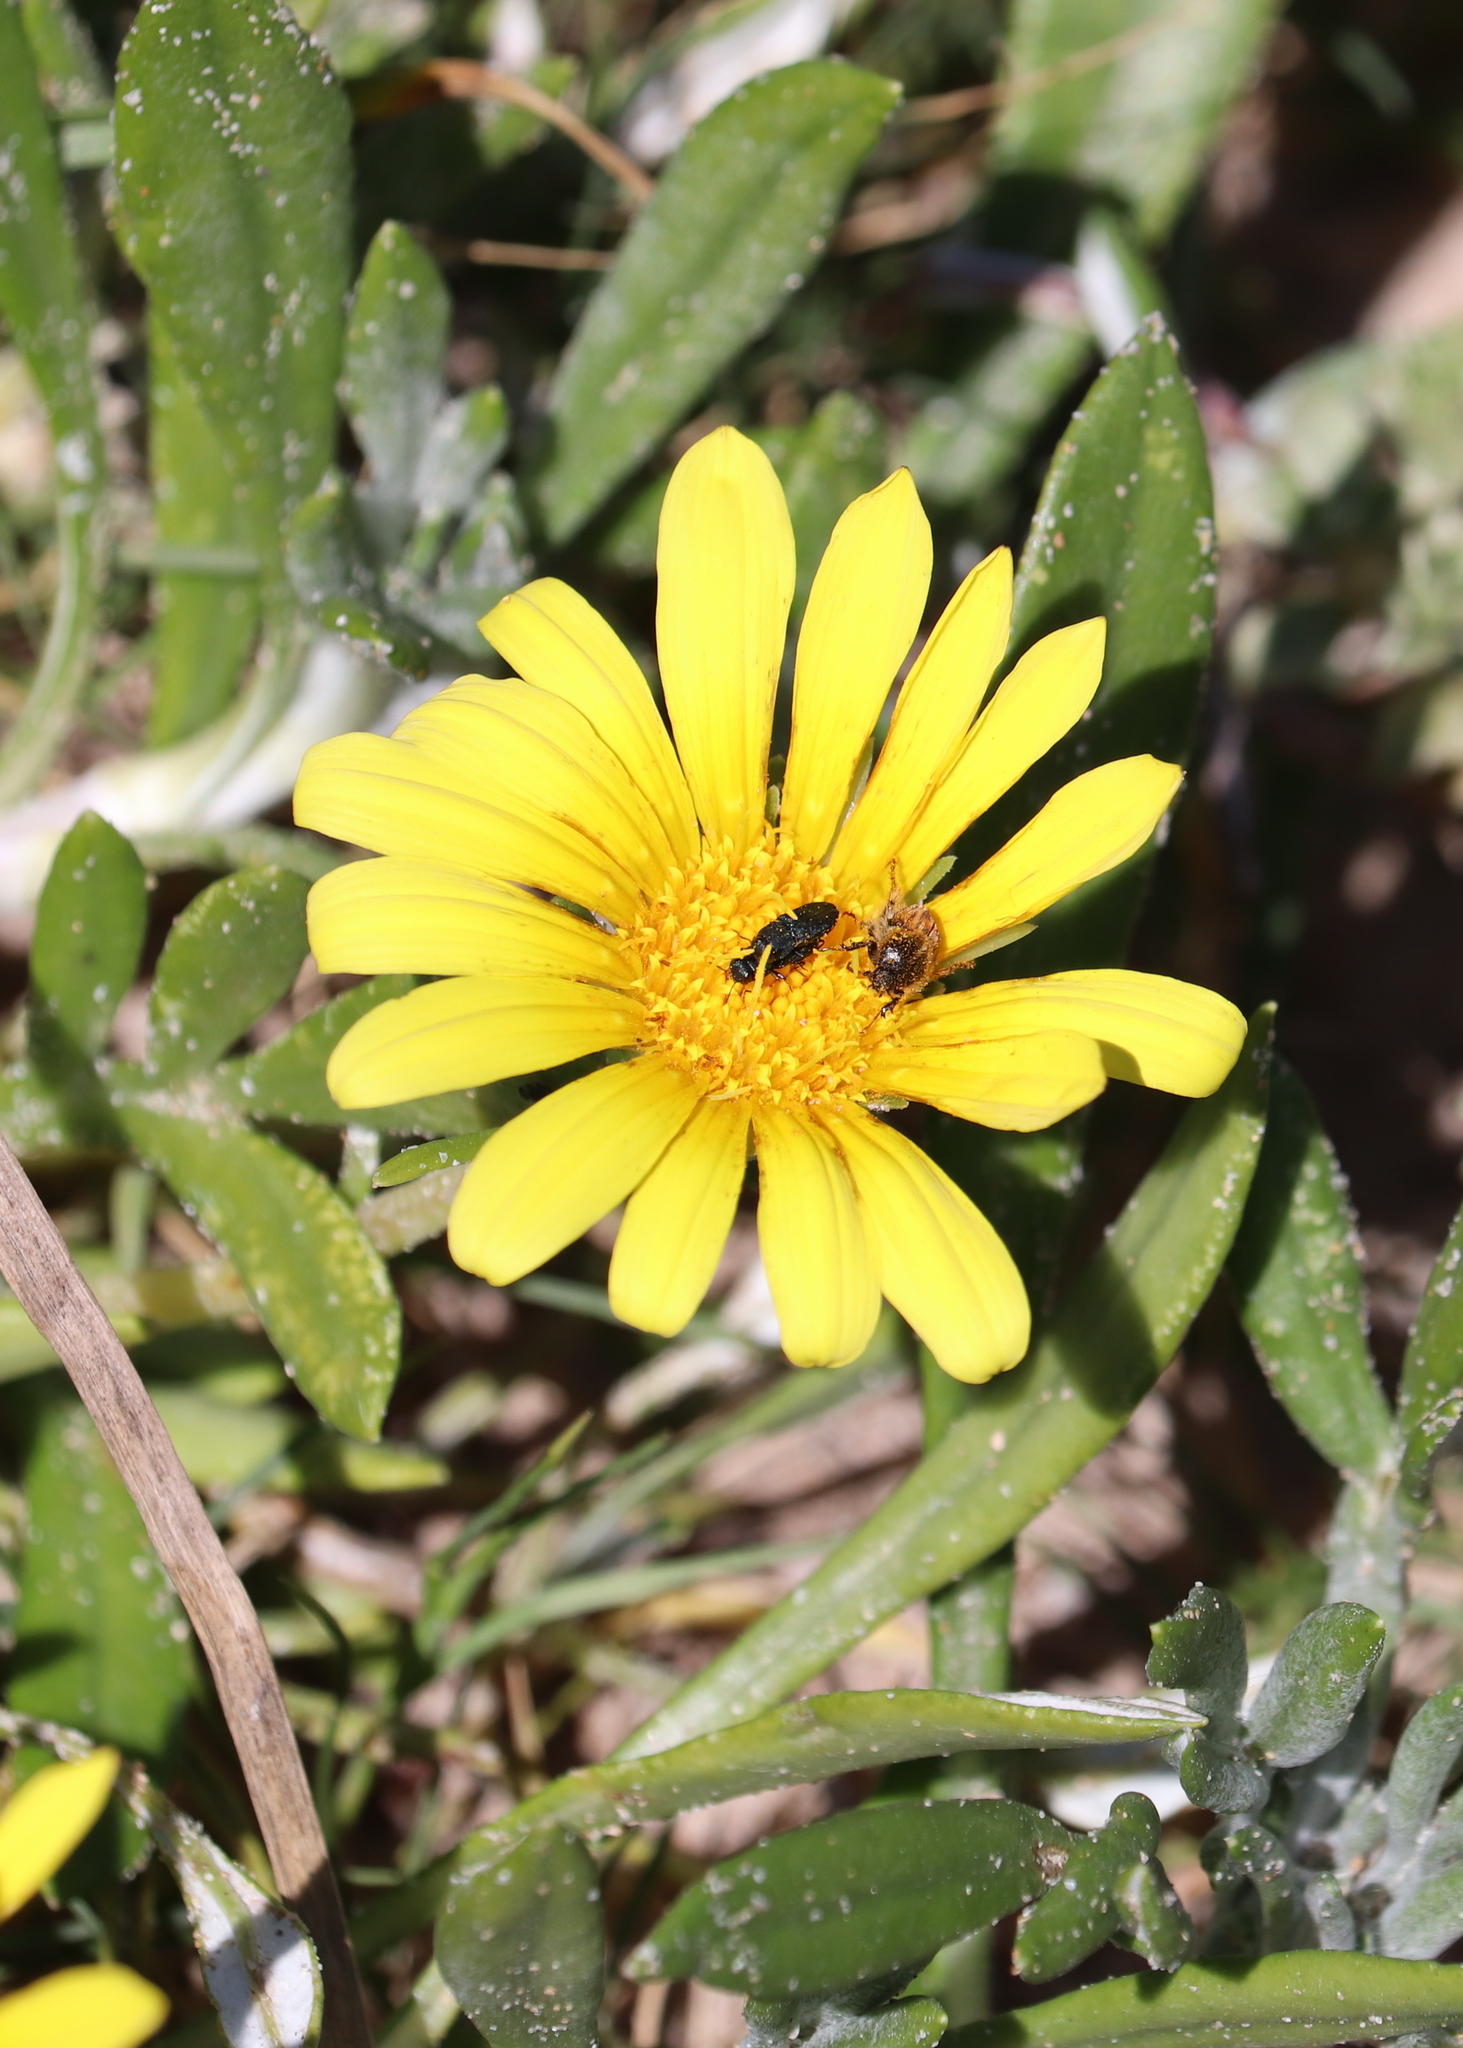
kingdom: Plantae
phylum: Tracheophyta
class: Magnoliopsida
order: Asterales
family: Asteraceae
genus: Gazania
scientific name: Gazania rigens
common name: Treasureflower
